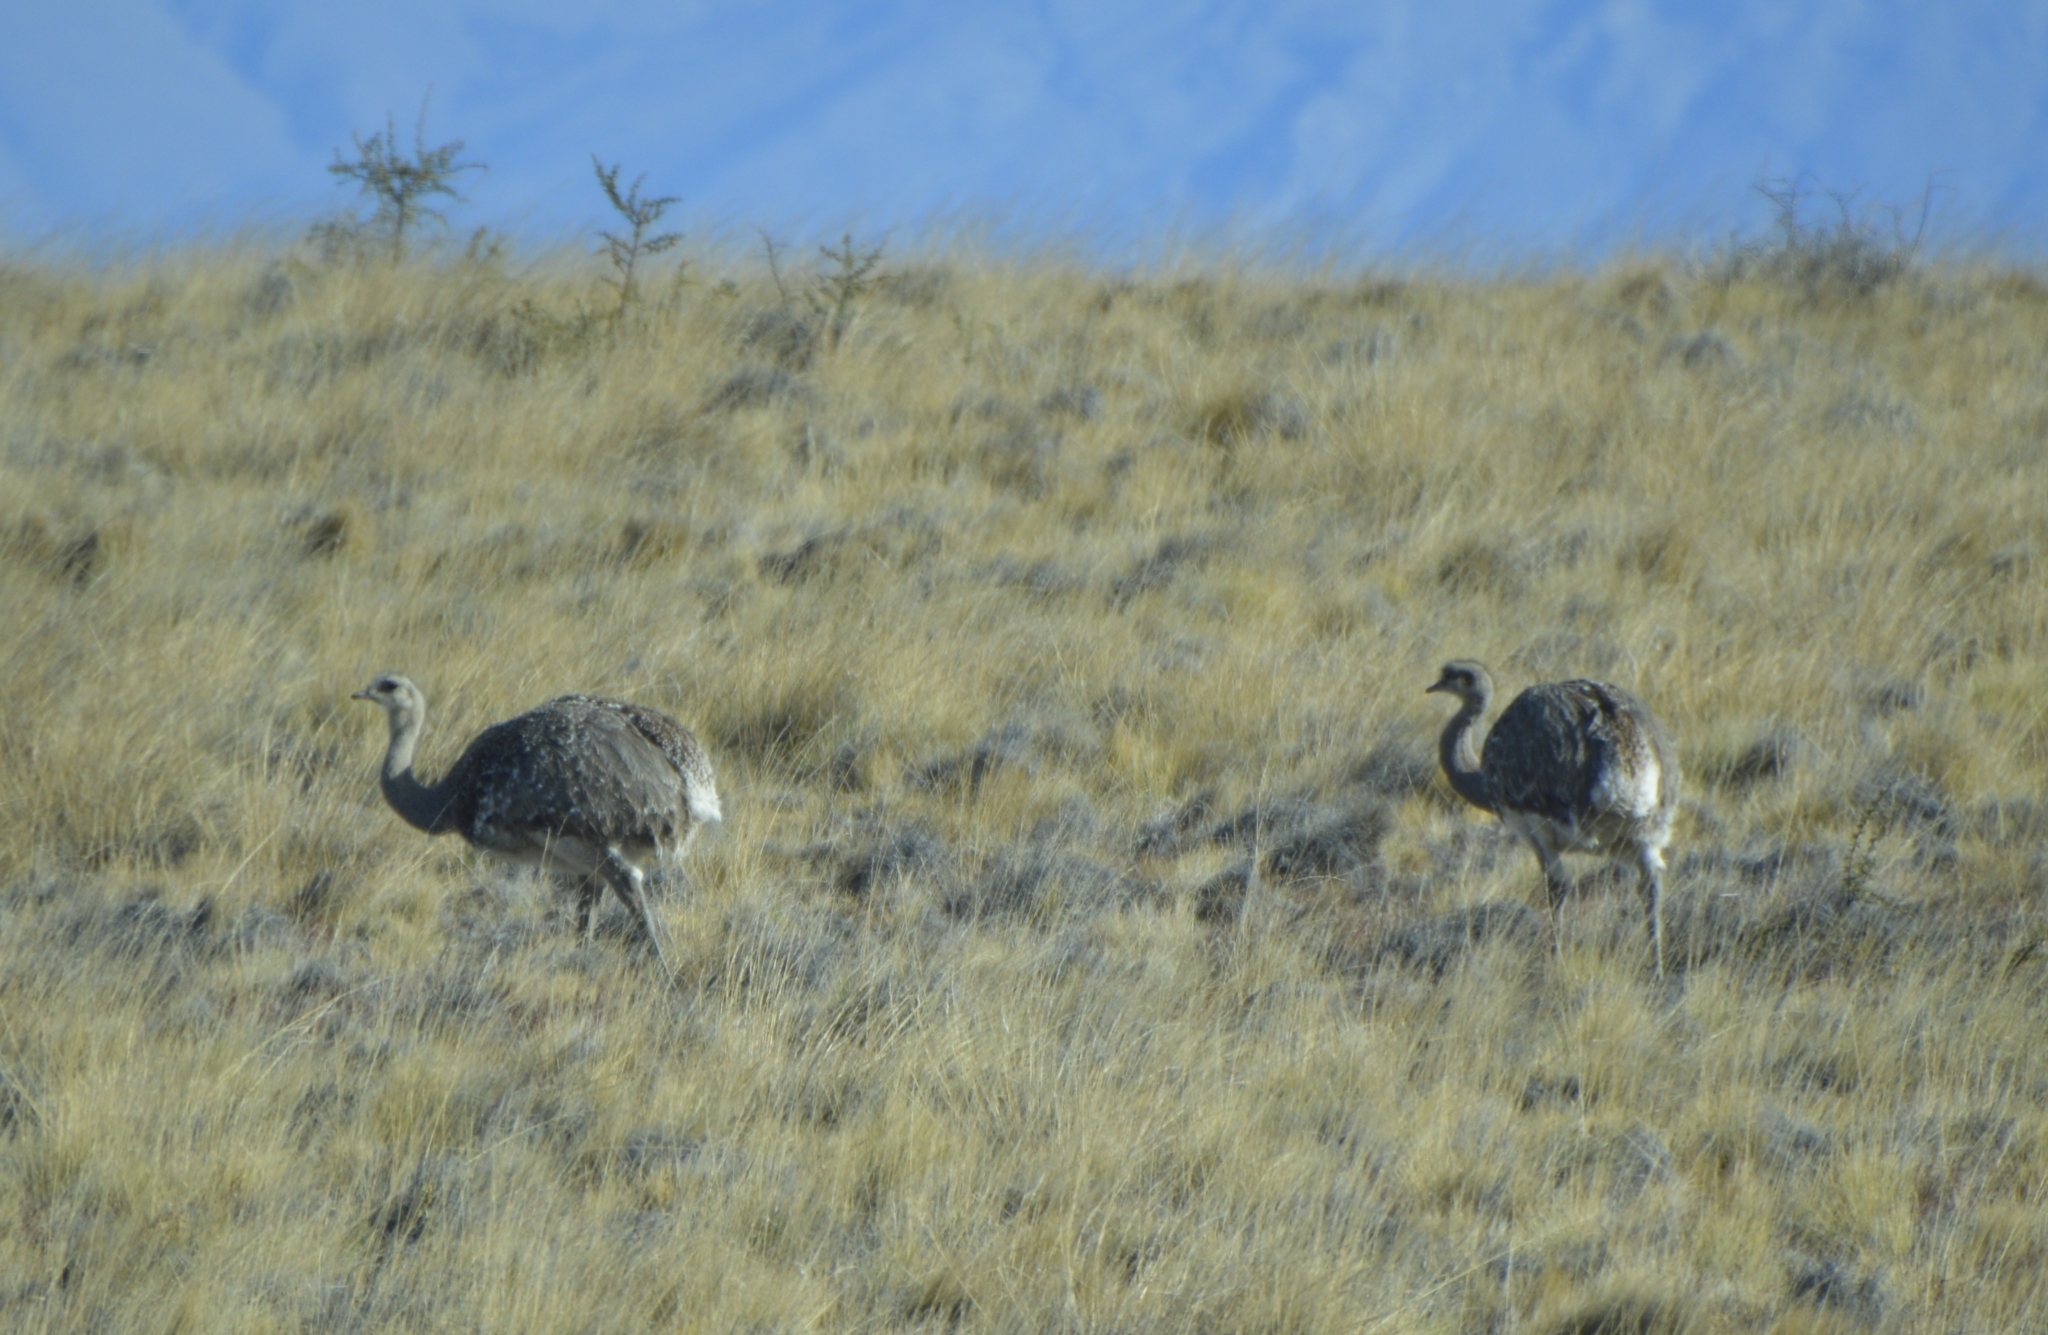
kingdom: Animalia
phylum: Chordata
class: Aves
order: Rheiformes
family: Rheidae
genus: Rhea
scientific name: Rhea pennata
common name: Lesser rhea
